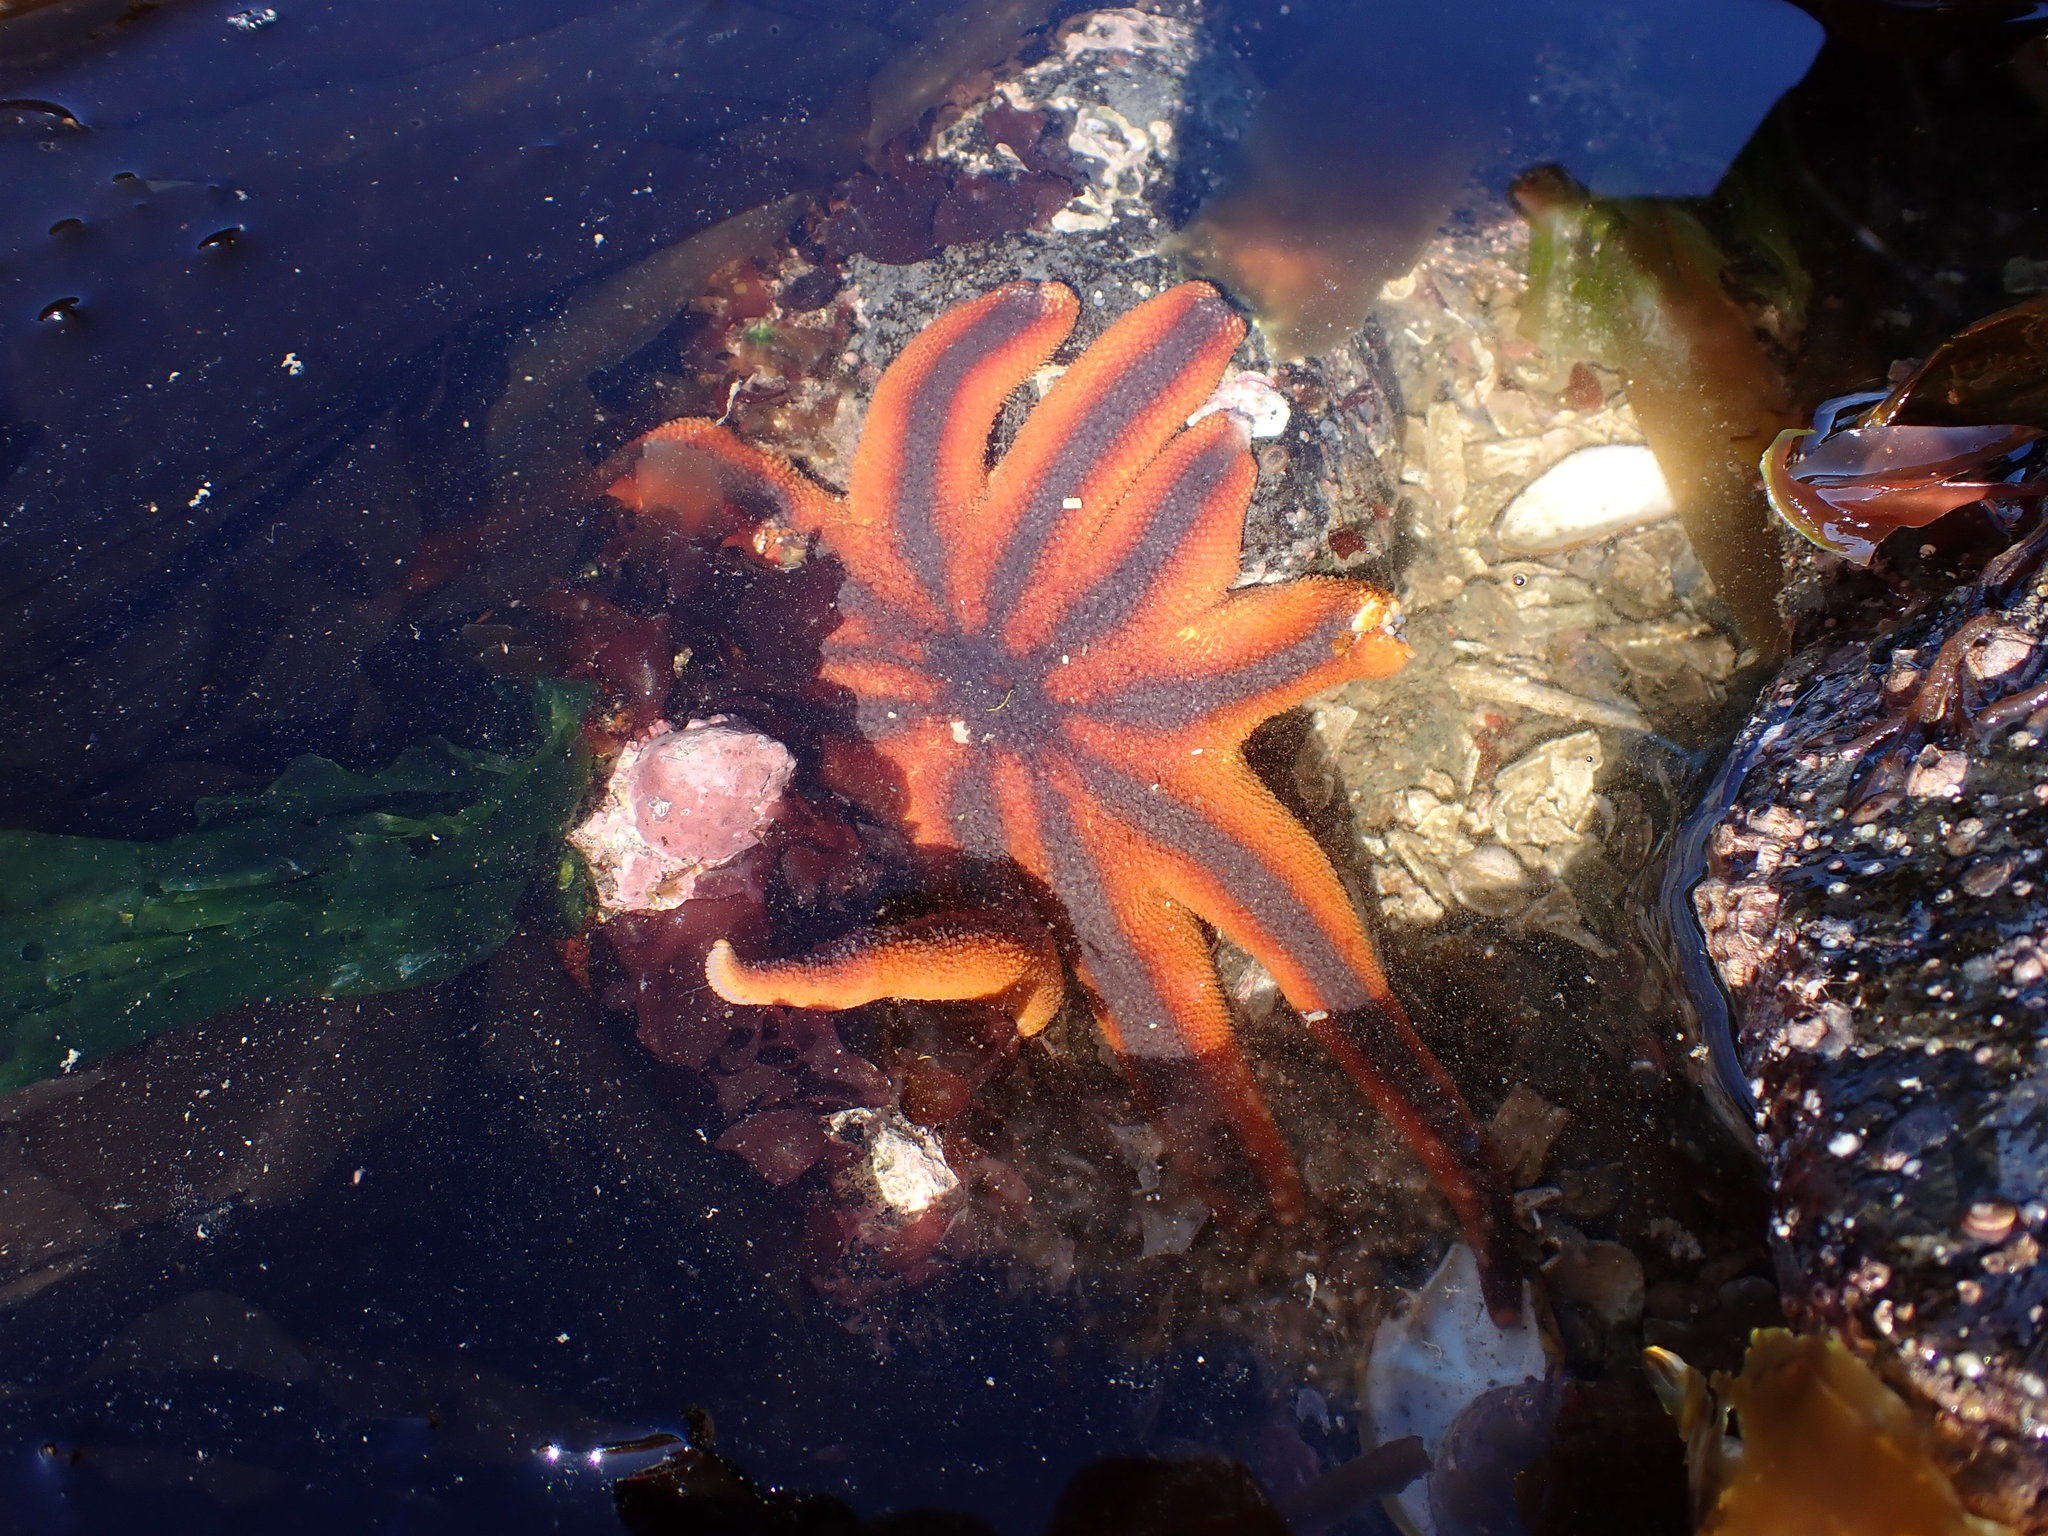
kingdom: Animalia
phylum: Echinodermata
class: Asteroidea
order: Valvatida
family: Solasteridae
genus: Solaster
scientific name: Solaster stimpsoni
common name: Orange sun star
